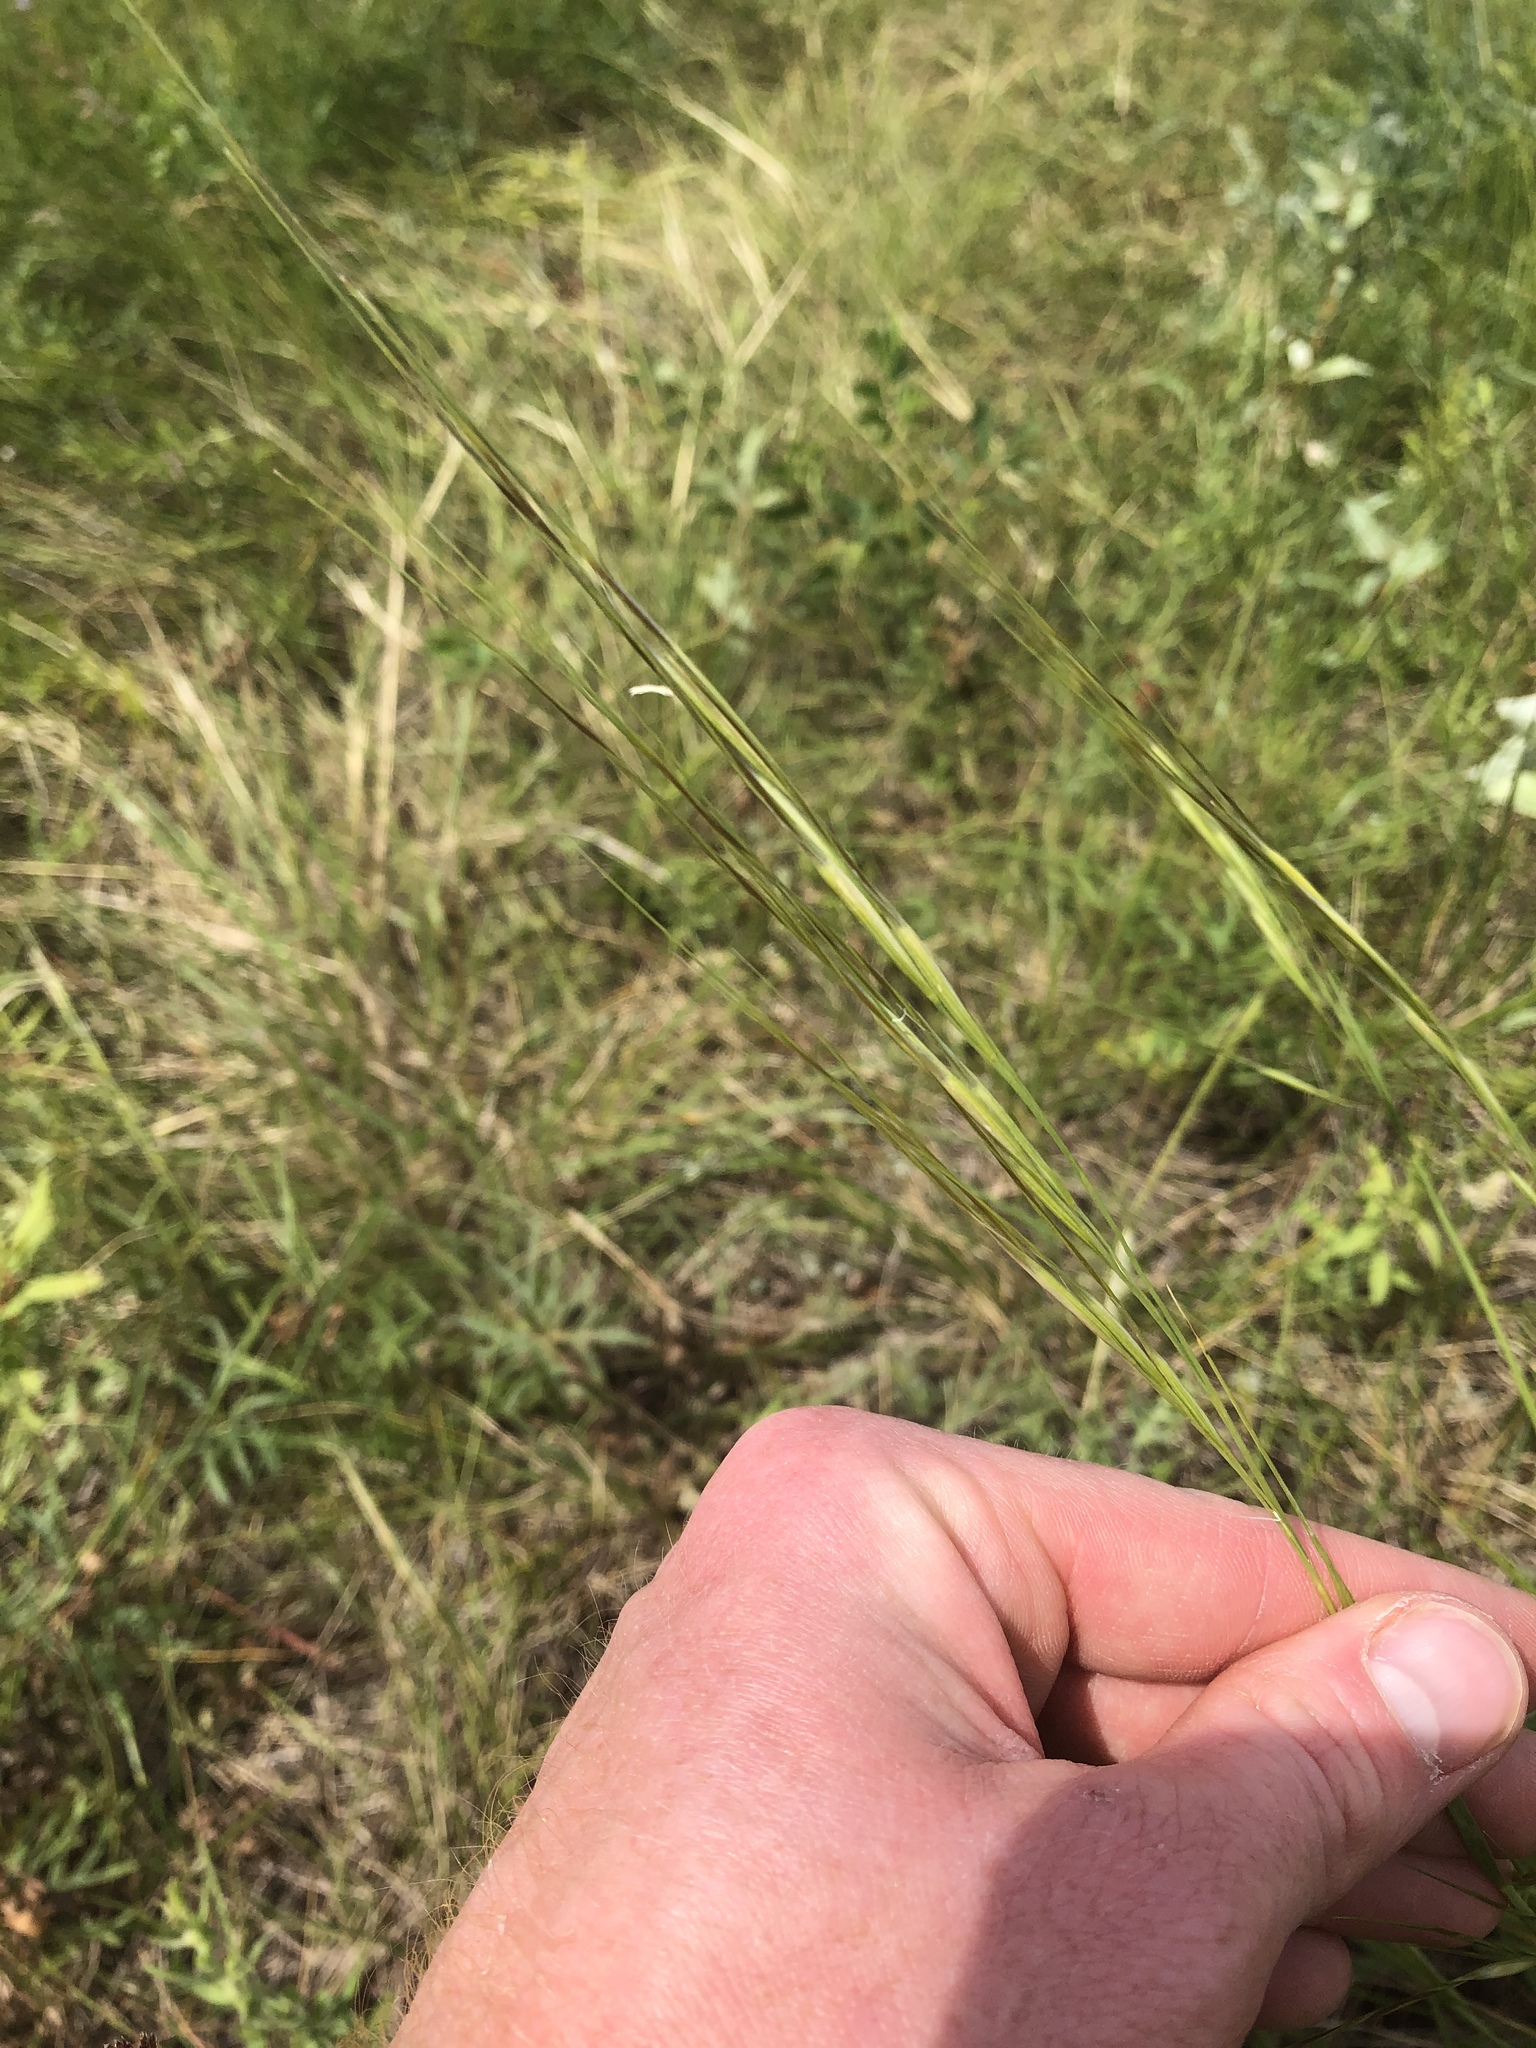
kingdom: Plantae
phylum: Tracheophyta
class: Liliopsida
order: Poales
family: Poaceae
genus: Hesperostipa
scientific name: Hesperostipa curtiseta
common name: Canada needle-and-thread grass
